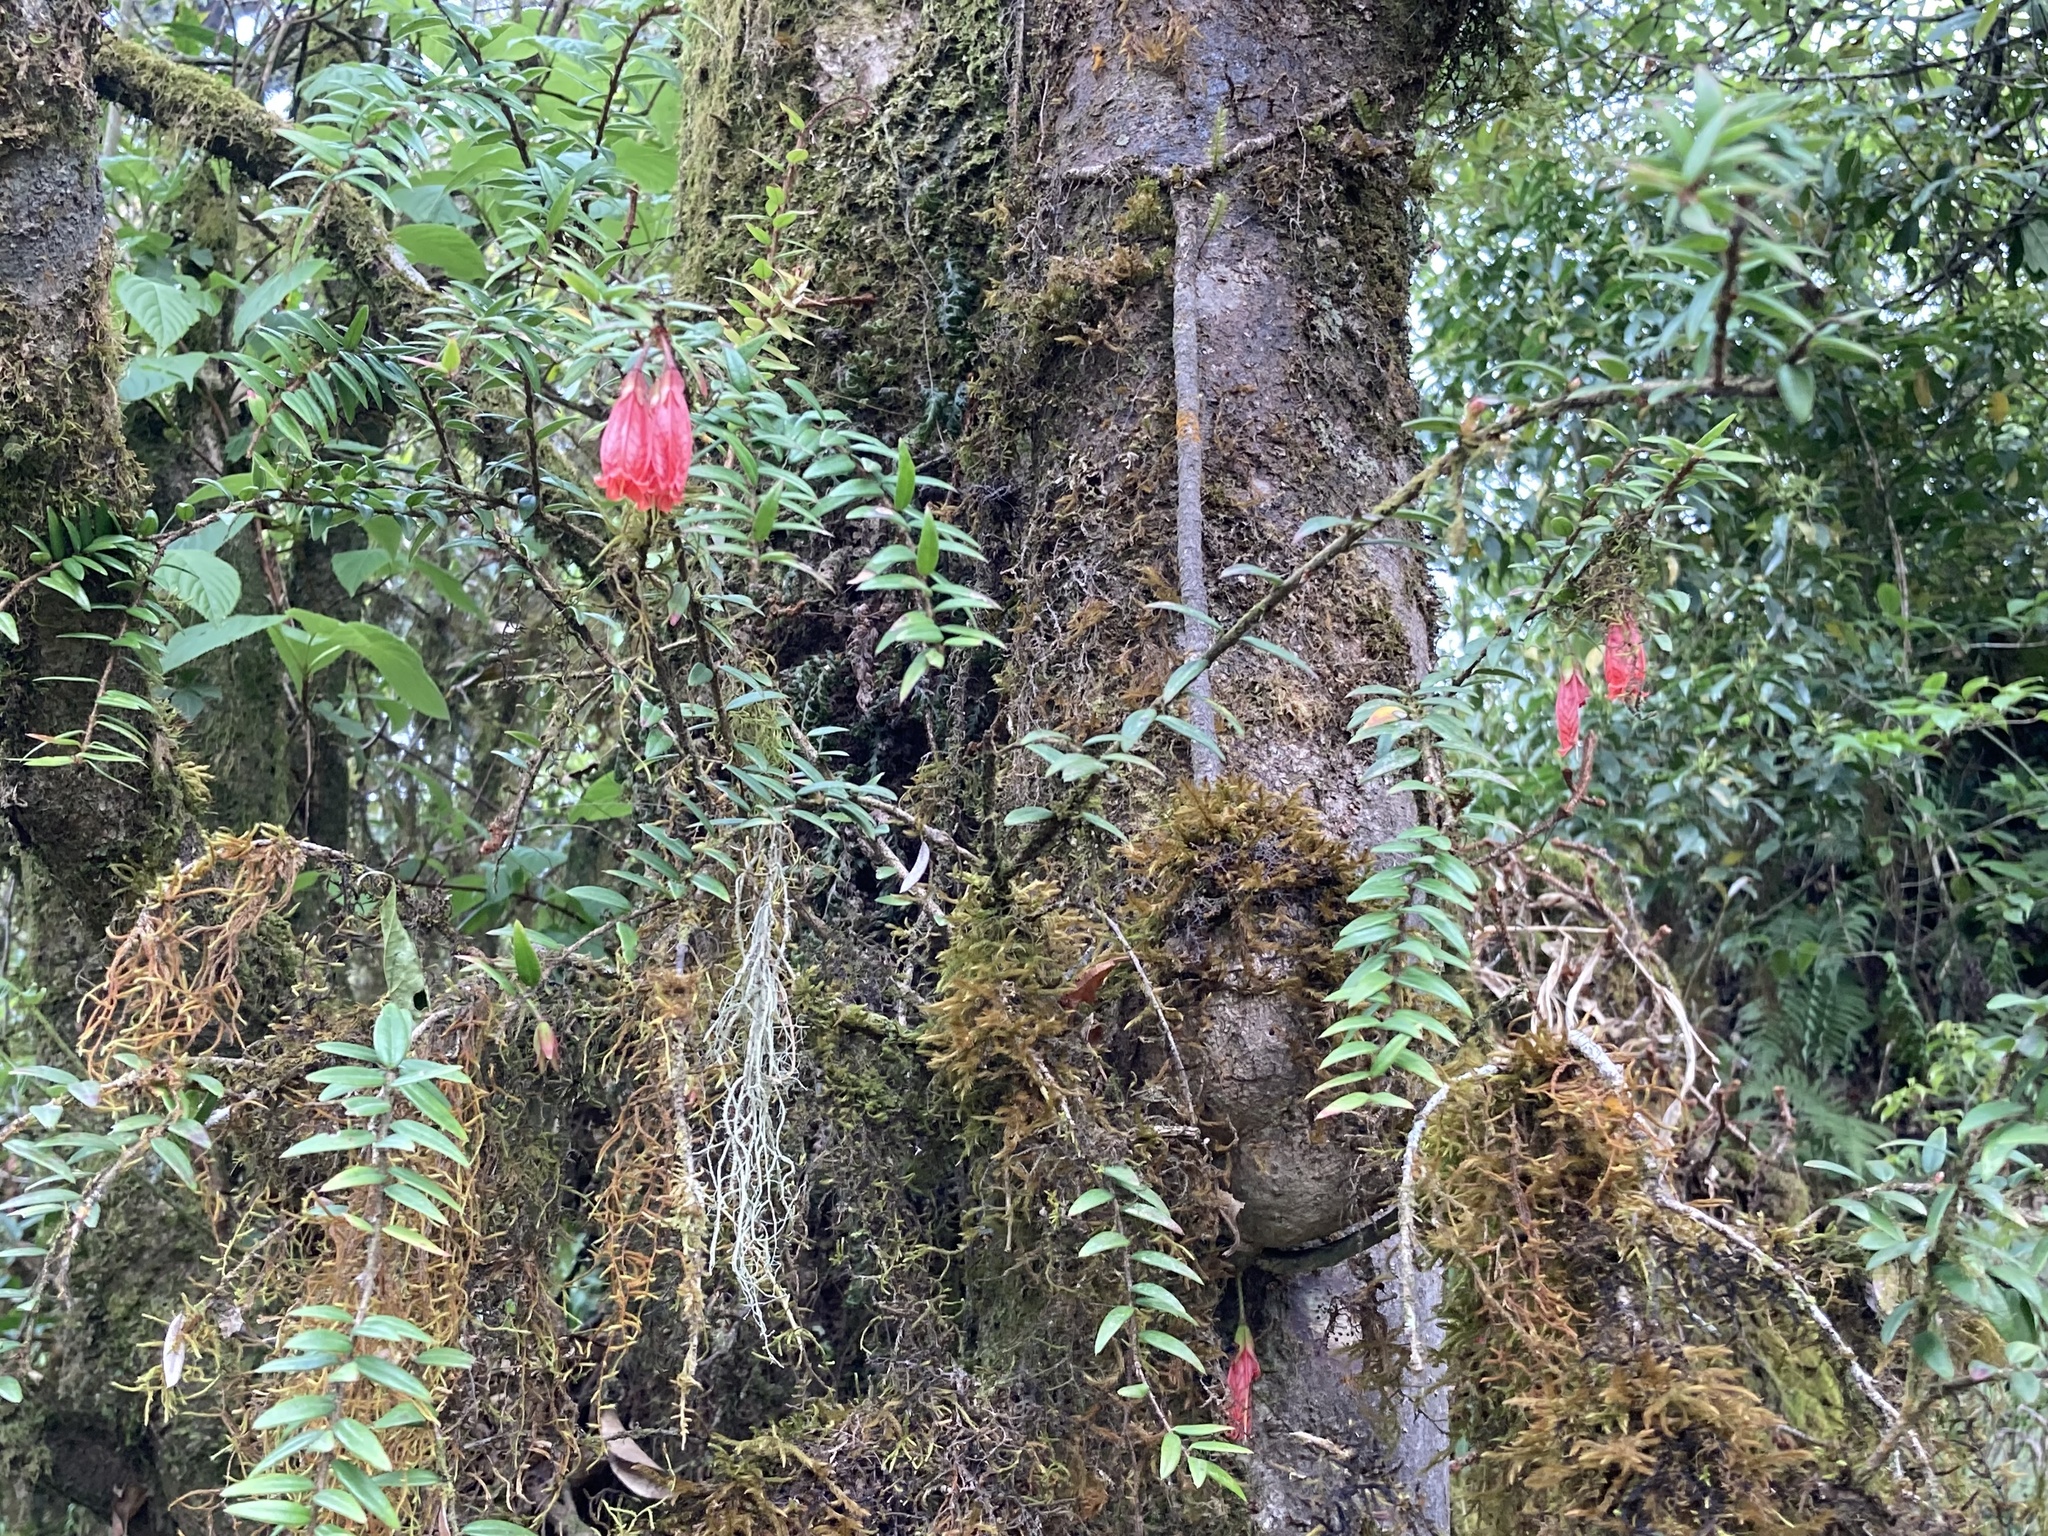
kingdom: Plantae
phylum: Tracheophyta
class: Magnoliopsida
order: Ericales
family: Ericaceae
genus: Agapetes
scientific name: Agapetes serpens
